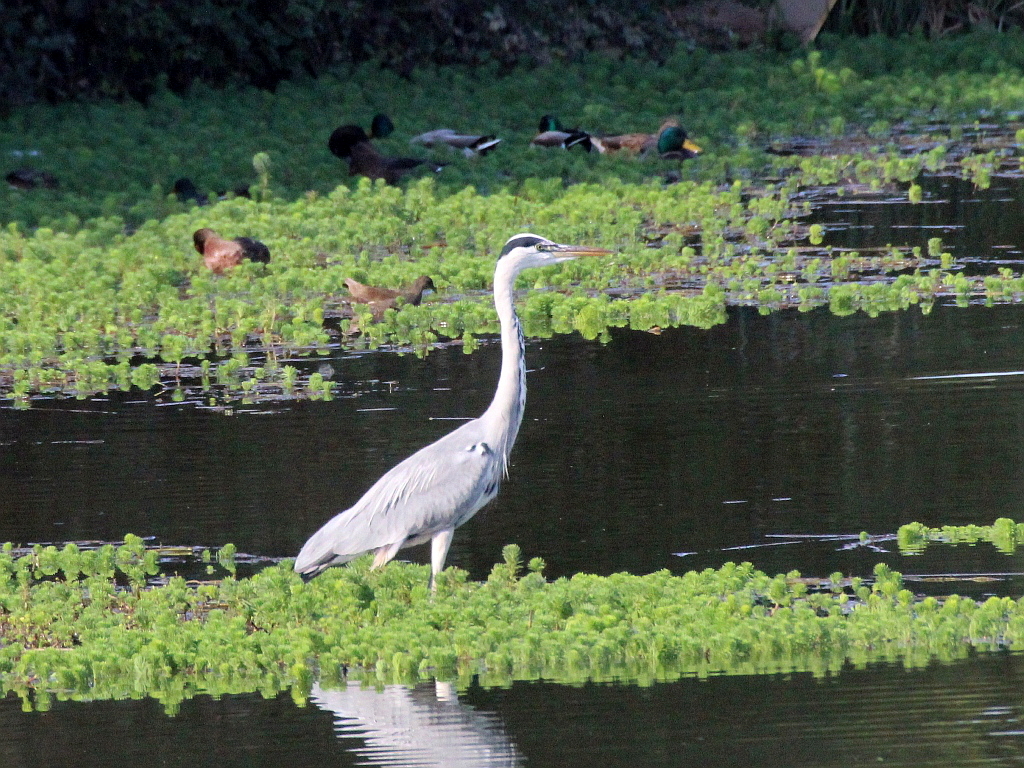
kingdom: Animalia
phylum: Chordata
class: Aves
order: Pelecaniformes
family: Ardeidae
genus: Ardea
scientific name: Ardea cinerea
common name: Grey heron
